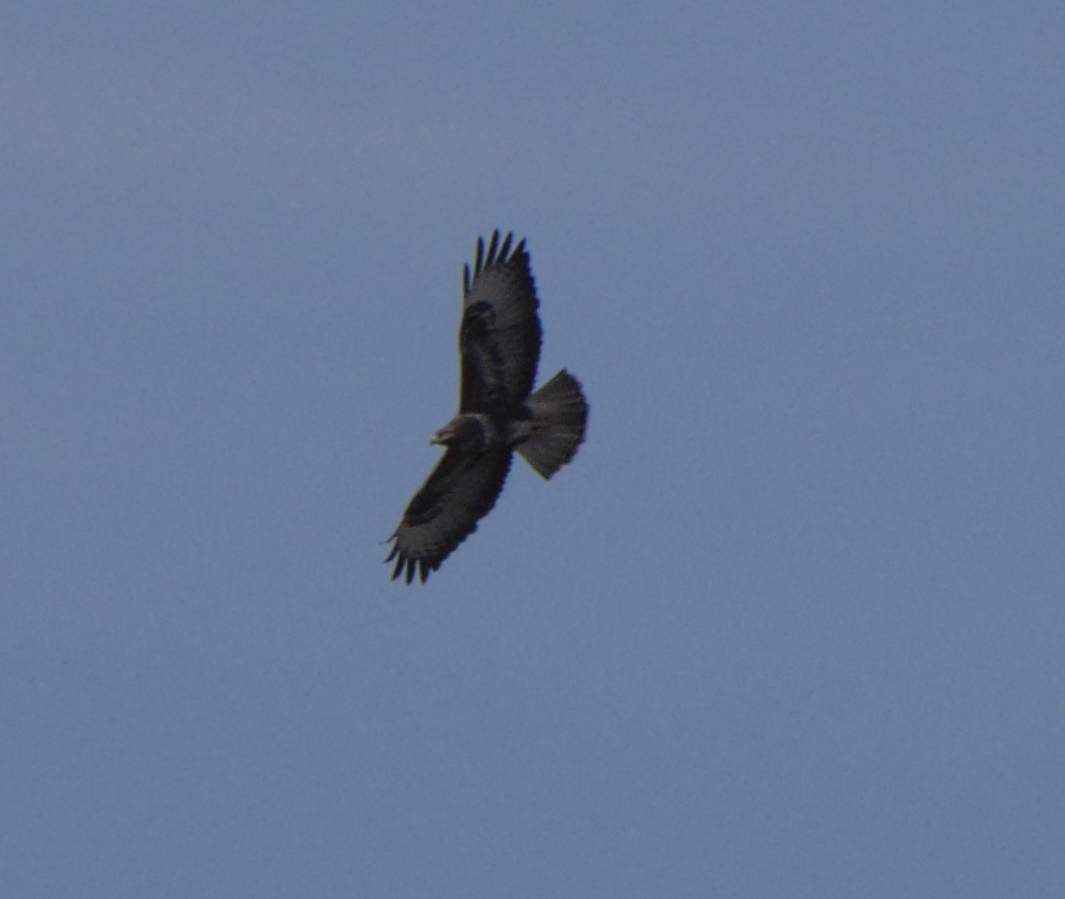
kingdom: Animalia
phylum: Chordata
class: Aves
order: Accipitriformes
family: Accipitridae
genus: Buteo
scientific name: Buteo buteo
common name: Common buzzard
